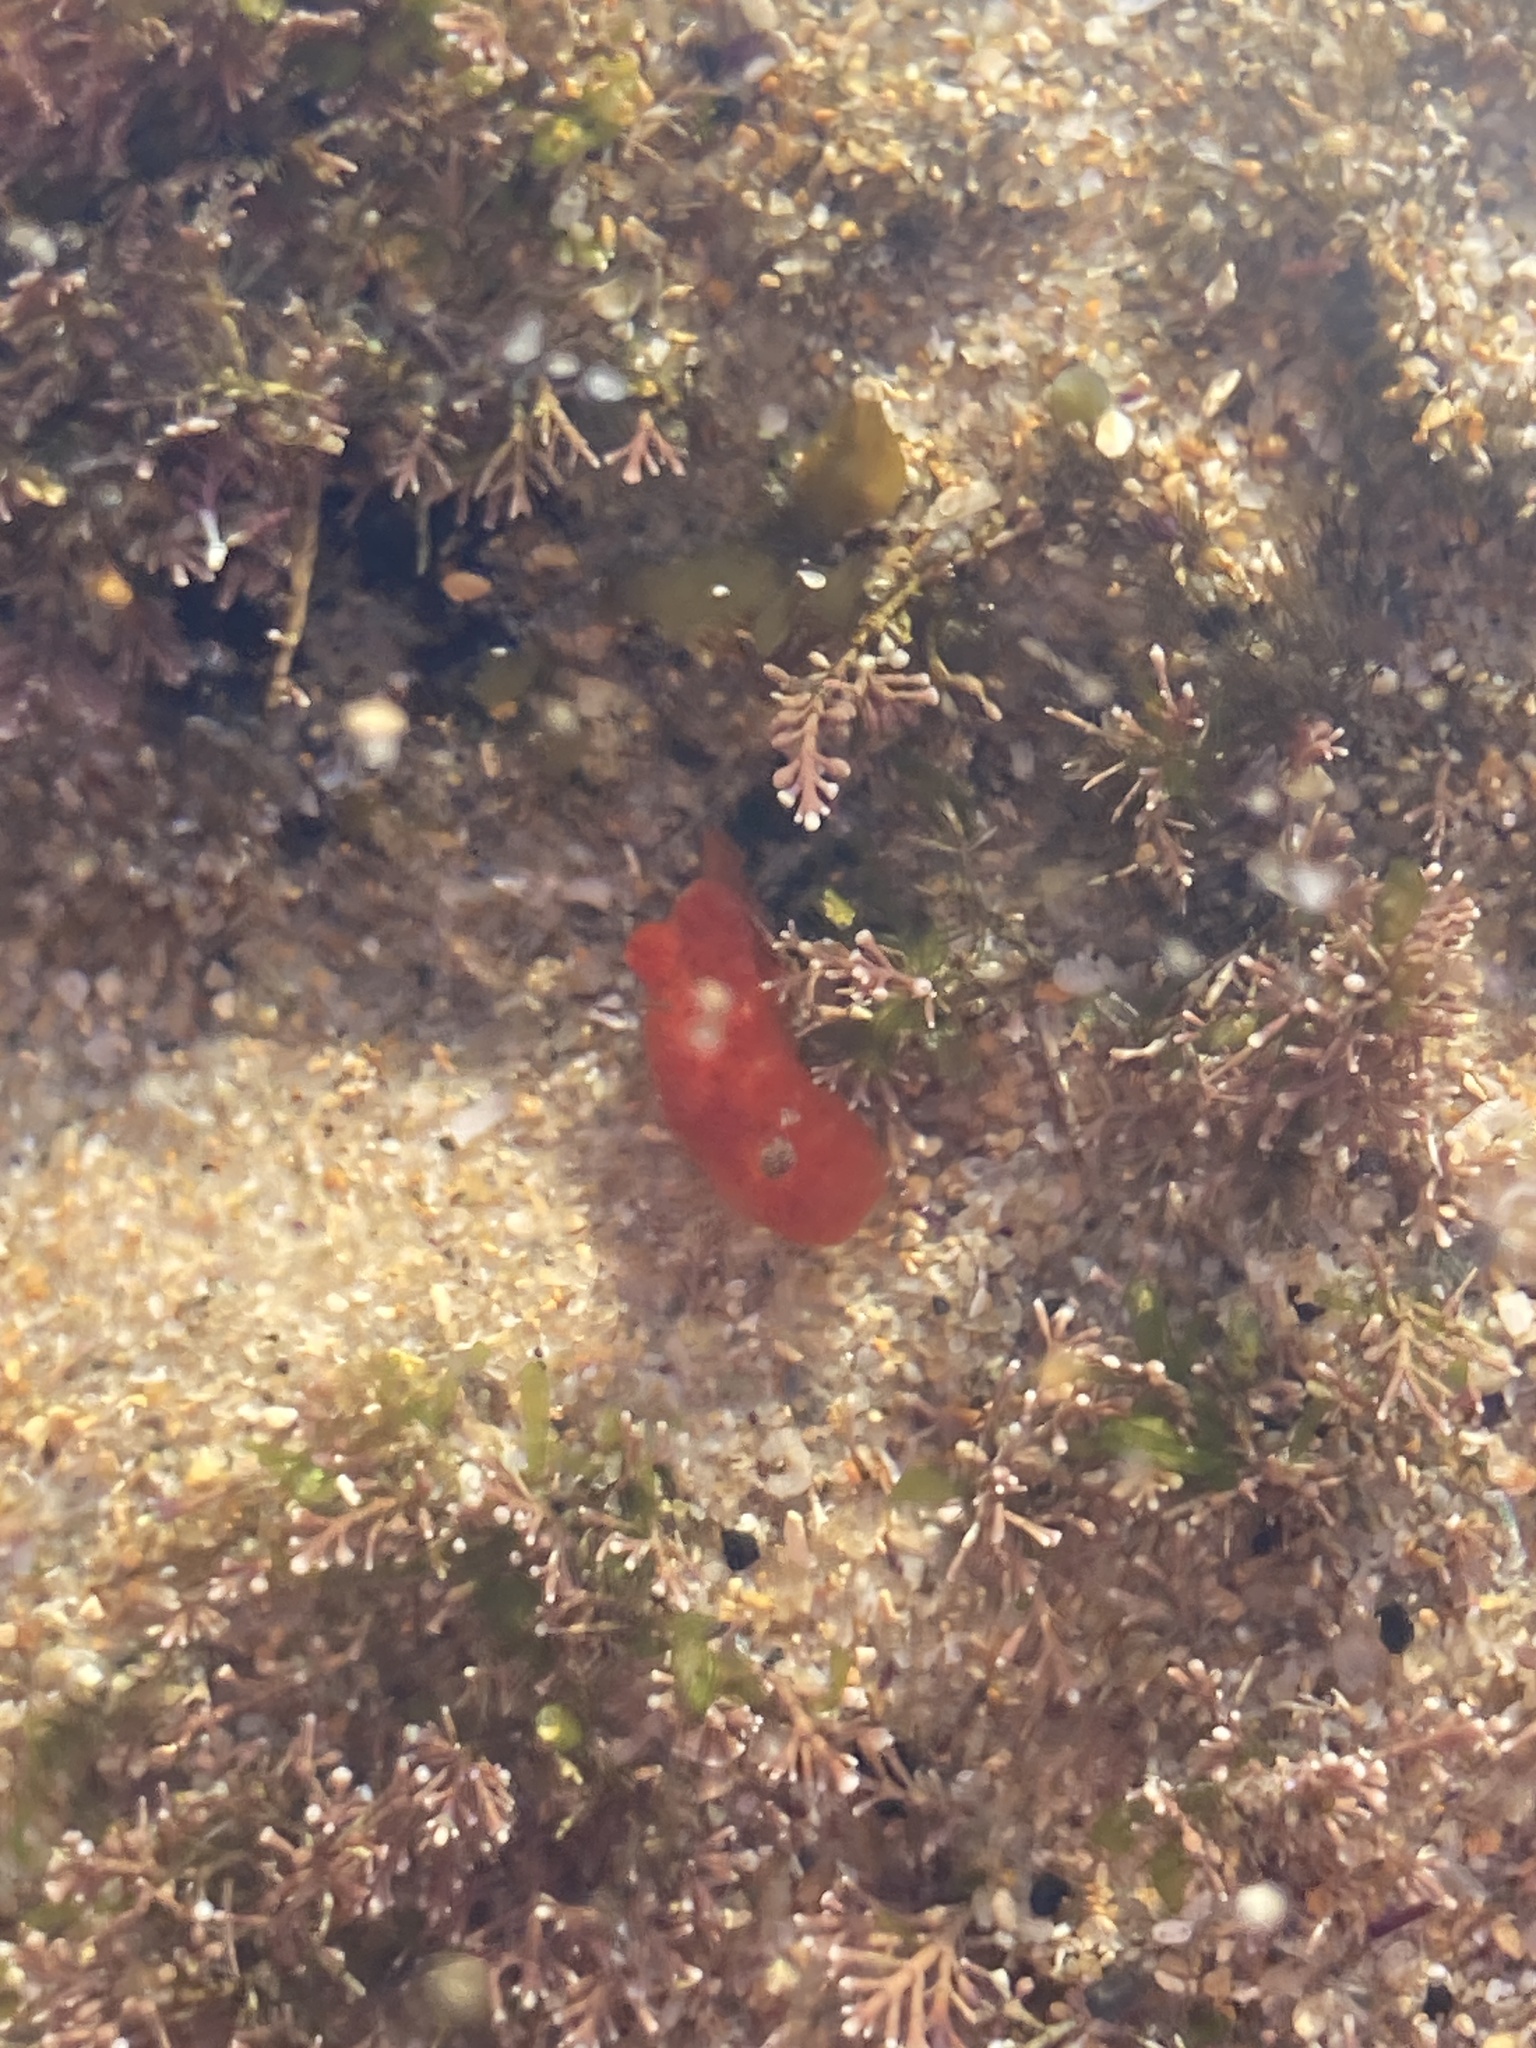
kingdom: Animalia
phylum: Mollusca
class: Gastropoda
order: Nudibranchia
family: Discodorididae
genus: Rostanga
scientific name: Rostanga arbutus
